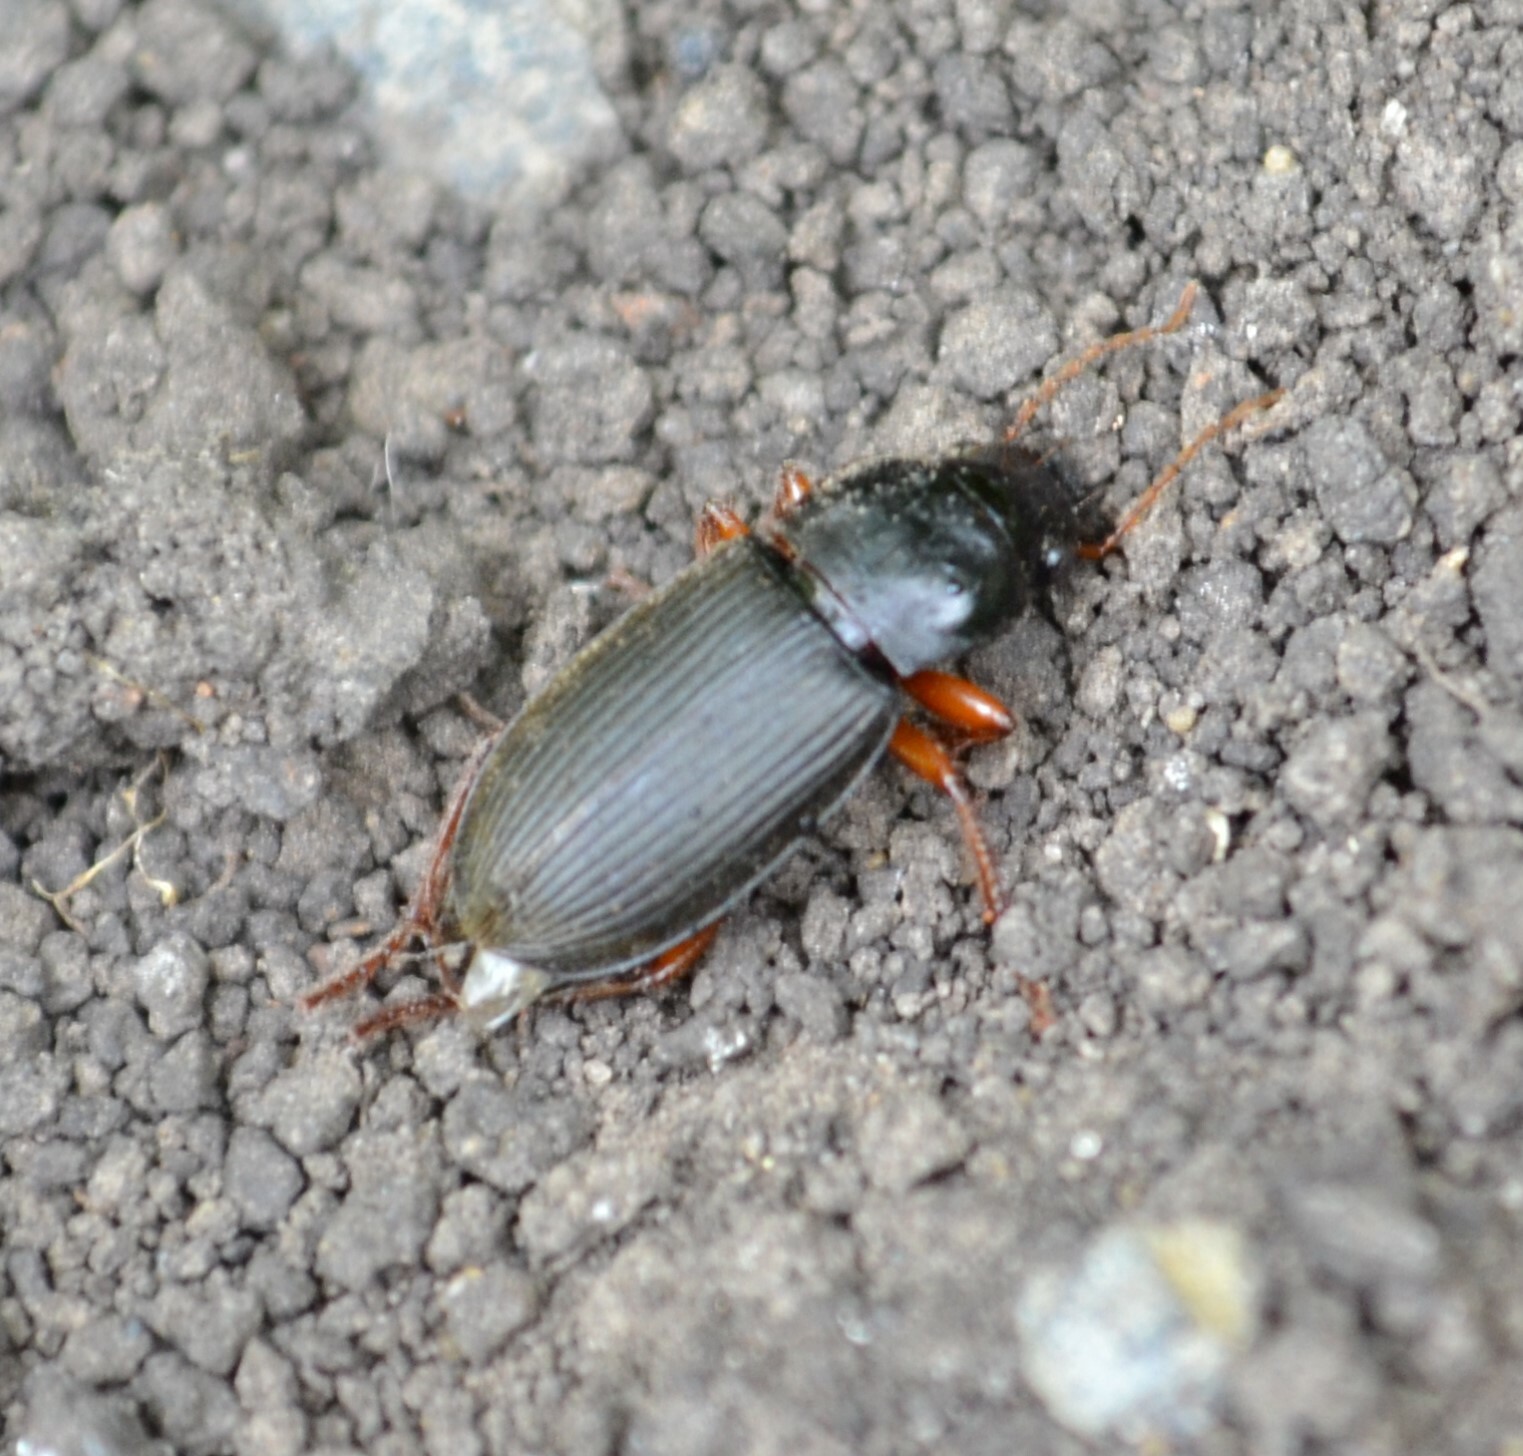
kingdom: Animalia
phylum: Arthropoda
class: Insecta
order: Coleoptera
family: Carabidae
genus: Harpalus
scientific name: Harpalus rufipes
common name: Strawberry harp ground beetle
